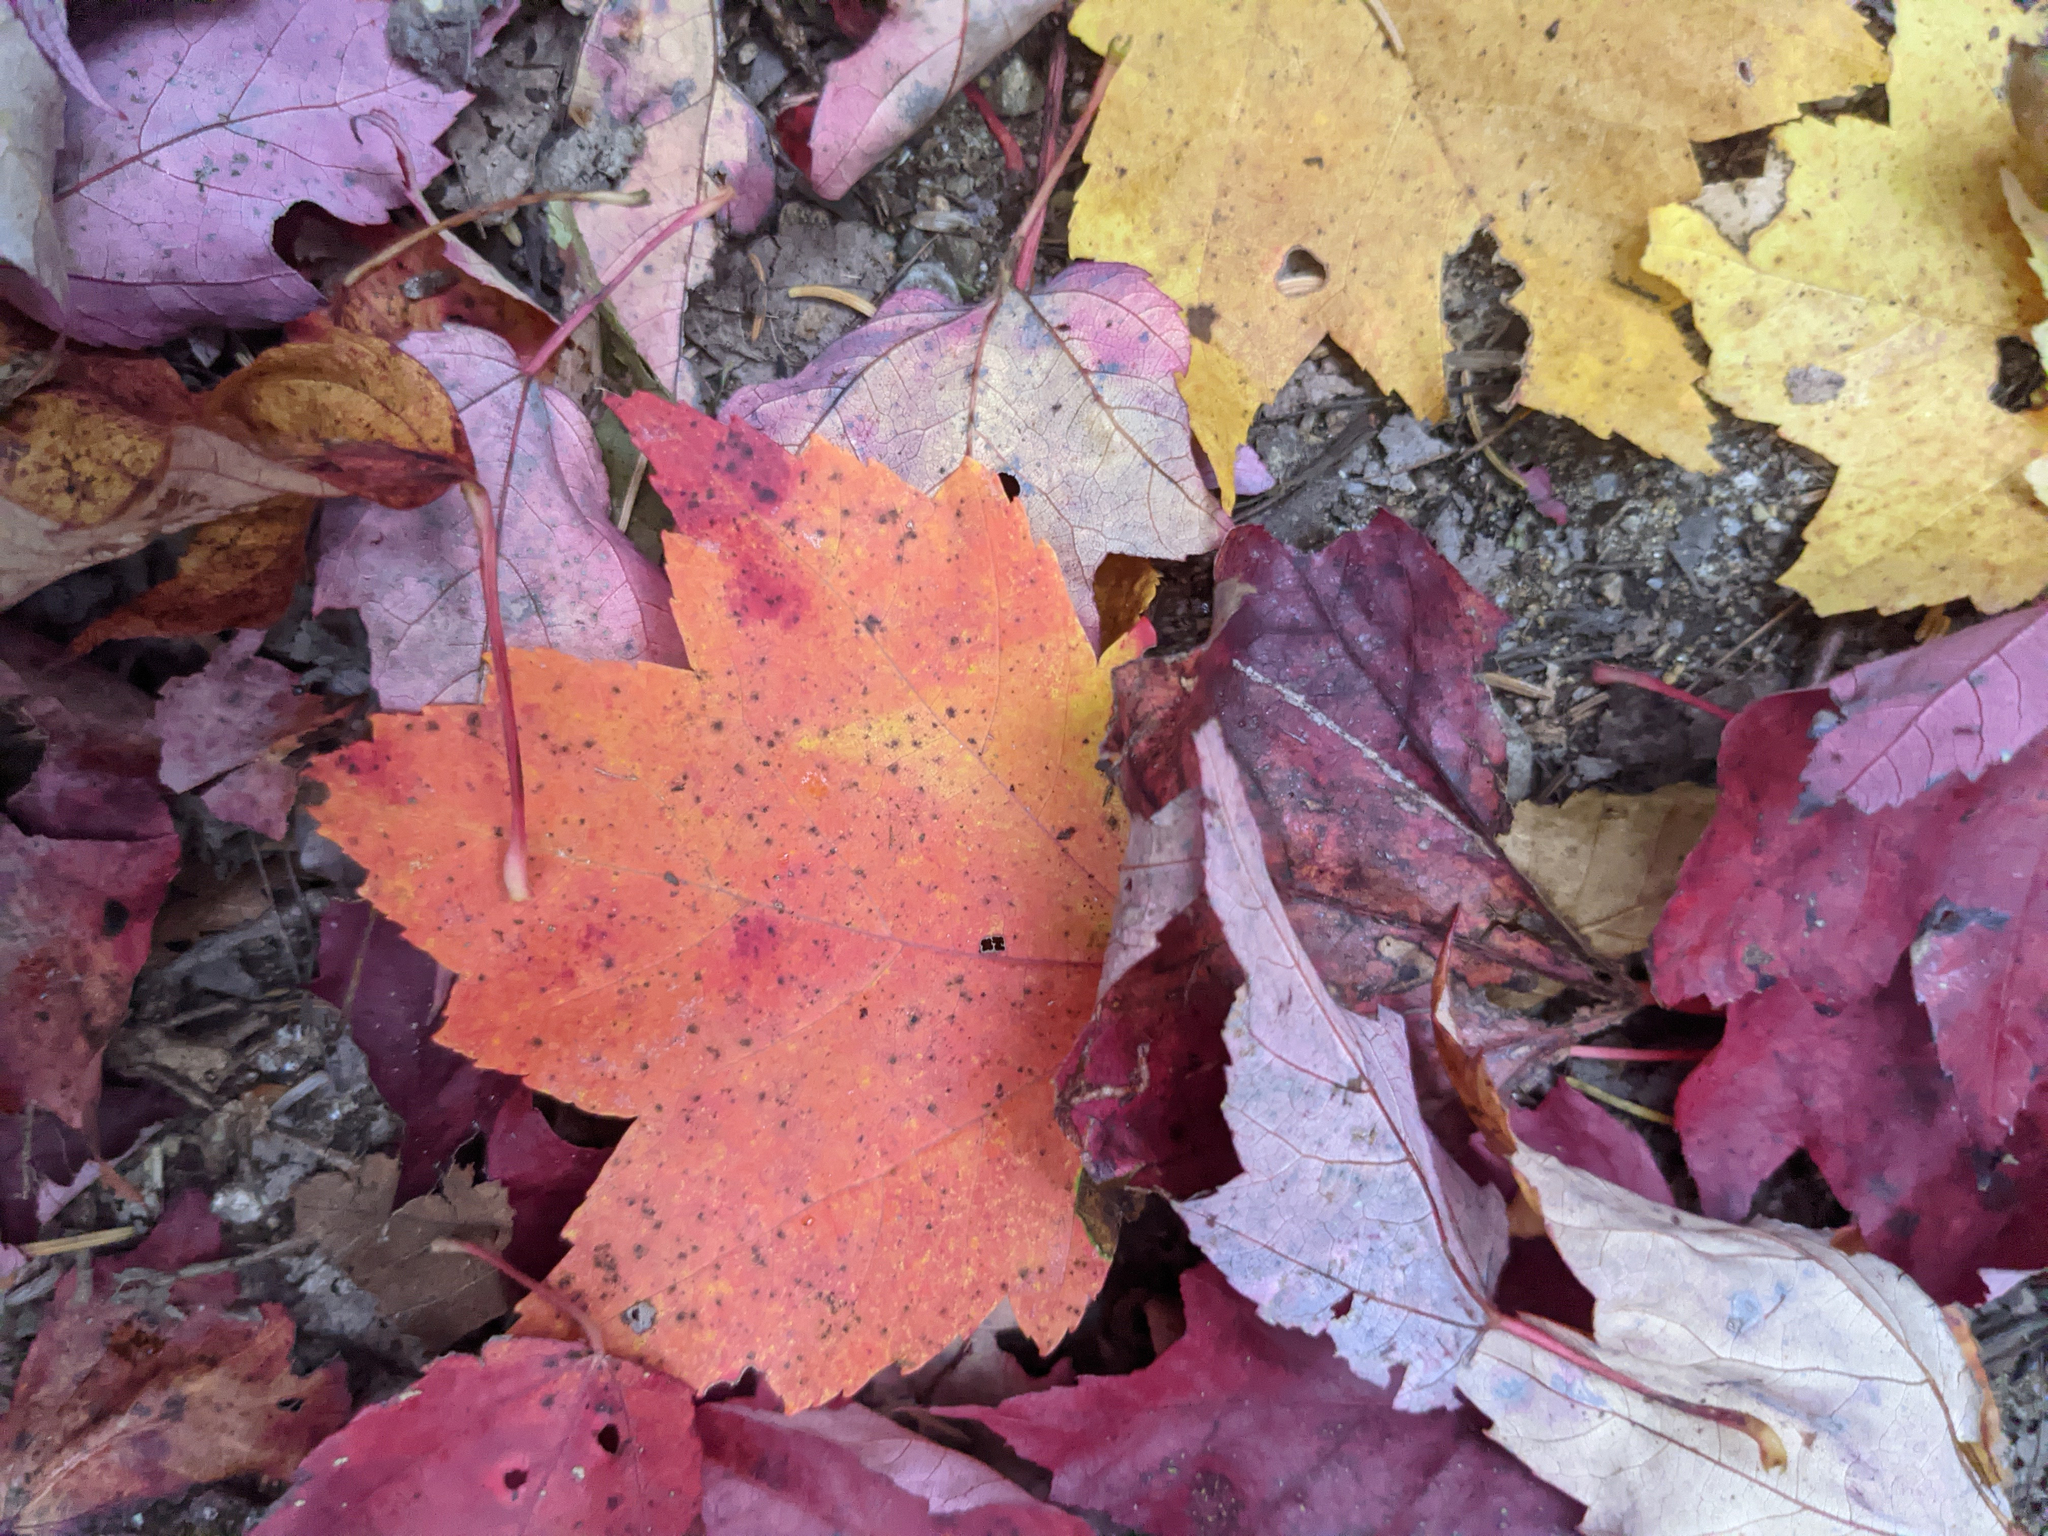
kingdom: Plantae
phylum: Tracheophyta
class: Magnoliopsida
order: Sapindales
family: Sapindaceae
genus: Acer
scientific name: Acer rubrum
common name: Red maple
